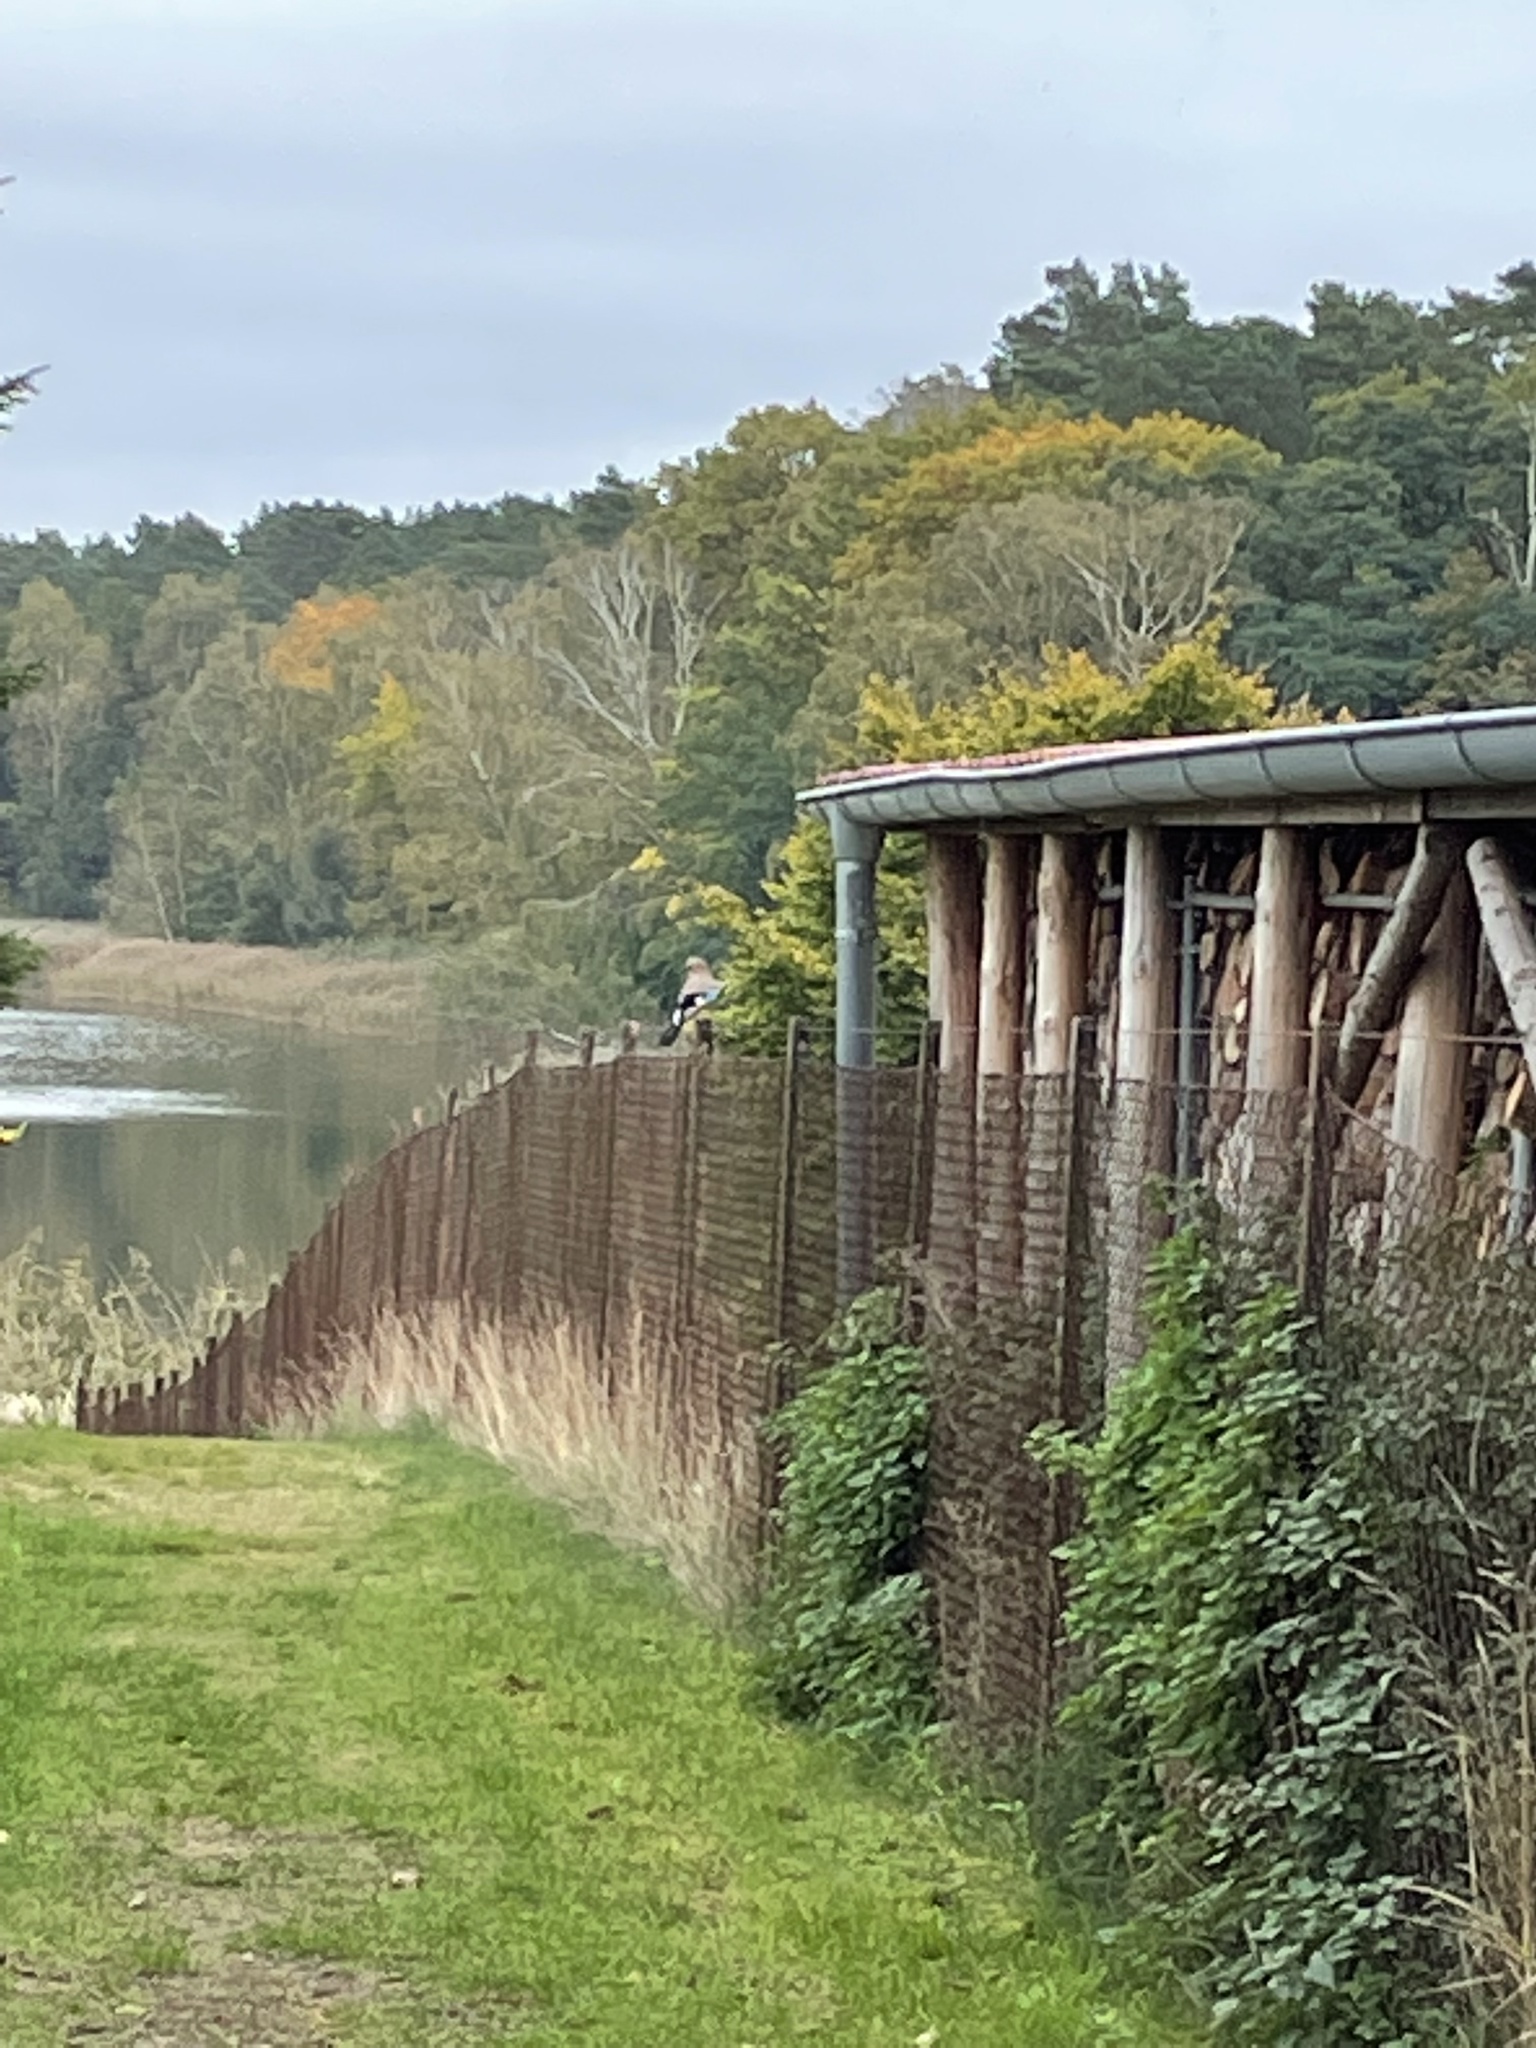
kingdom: Animalia
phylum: Chordata
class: Aves
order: Passeriformes
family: Corvidae
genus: Garrulus
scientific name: Garrulus glandarius
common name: Eurasian jay
